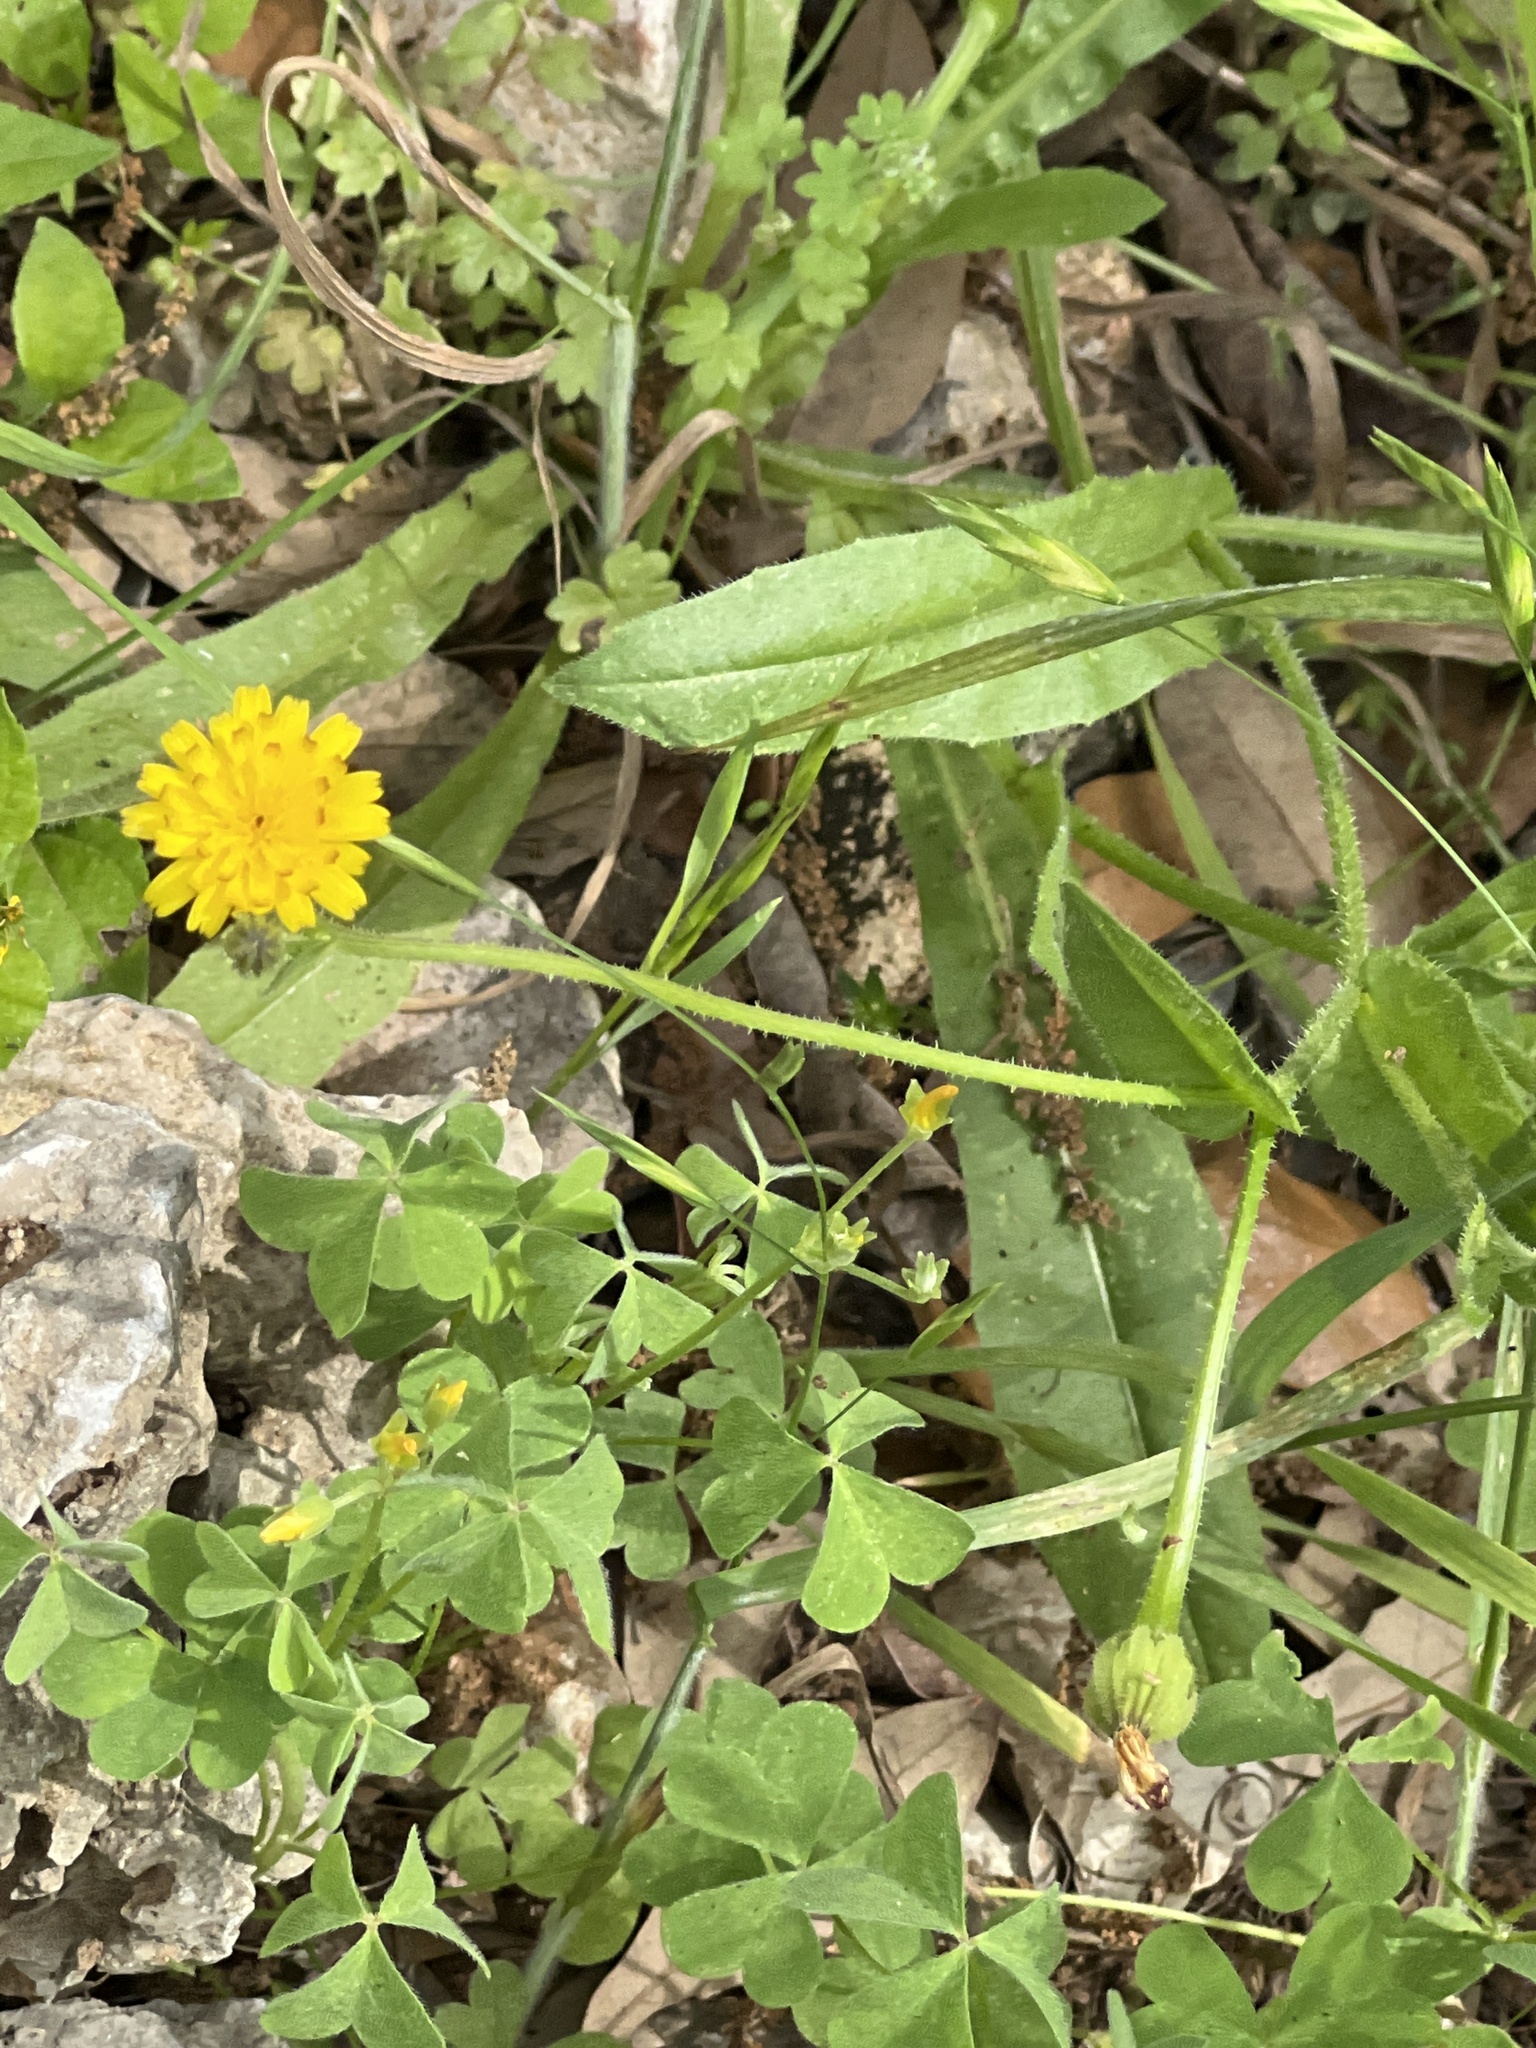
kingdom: Plantae
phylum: Tracheophyta
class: Magnoliopsida
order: Asterales
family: Asteraceae
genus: Hedypnois
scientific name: Hedypnois rhagadioloides
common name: Cretan weed
